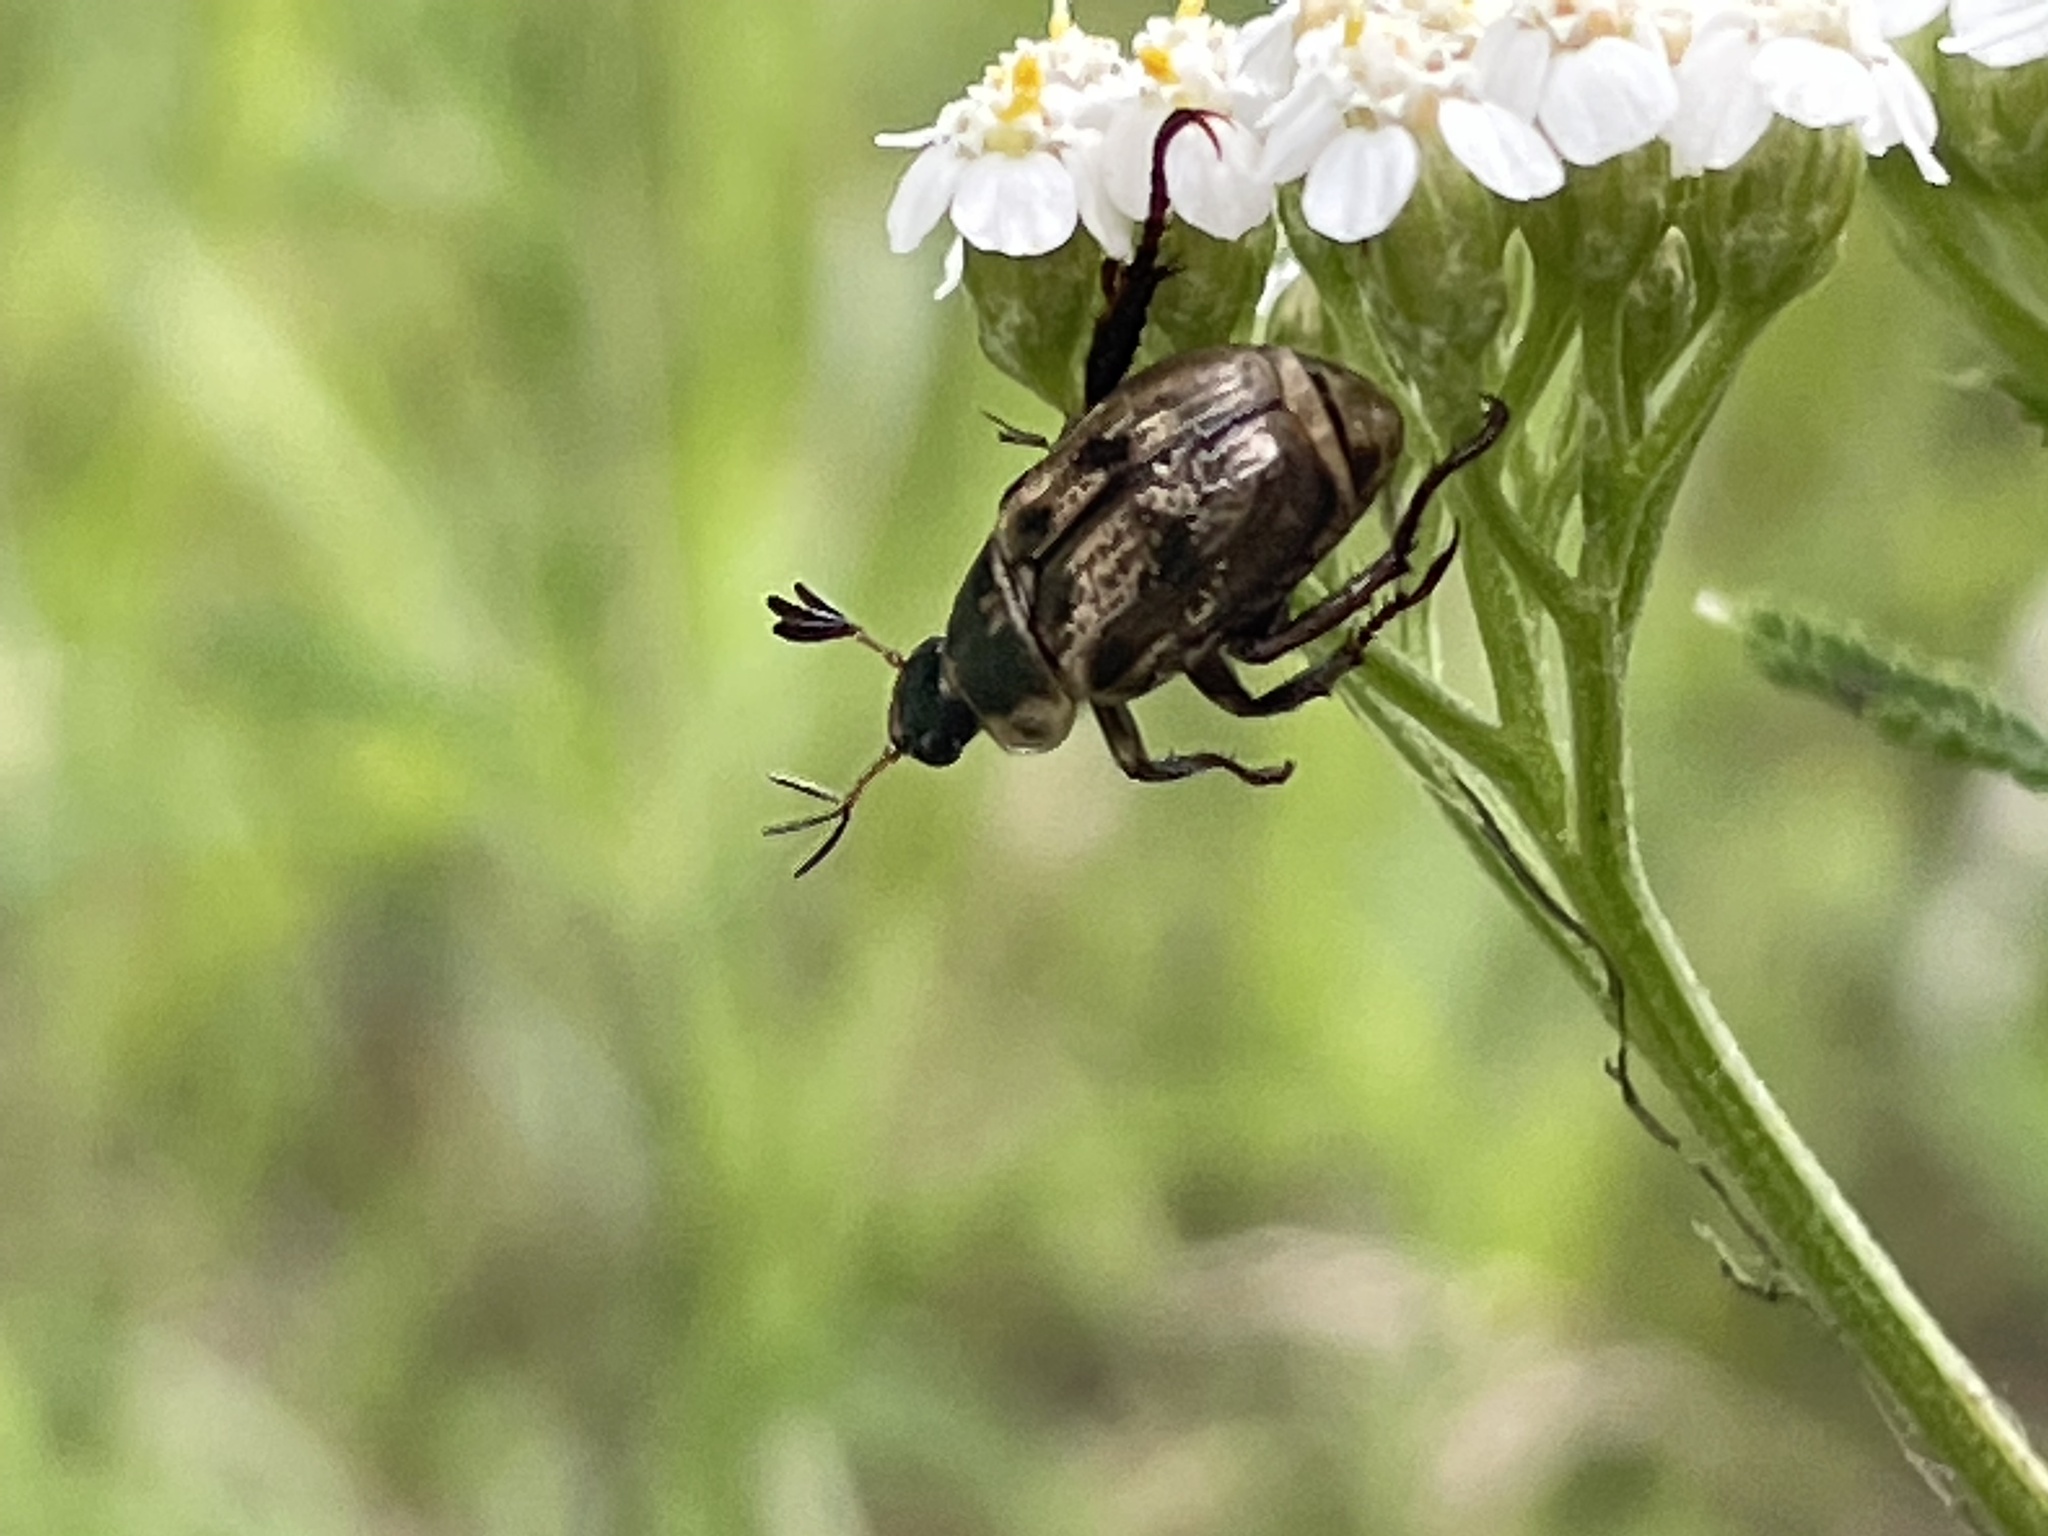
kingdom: Animalia
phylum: Arthropoda
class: Insecta
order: Coleoptera
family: Scarabaeidae
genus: Exomala
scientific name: Exomala orientalis
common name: Oriental beetle
